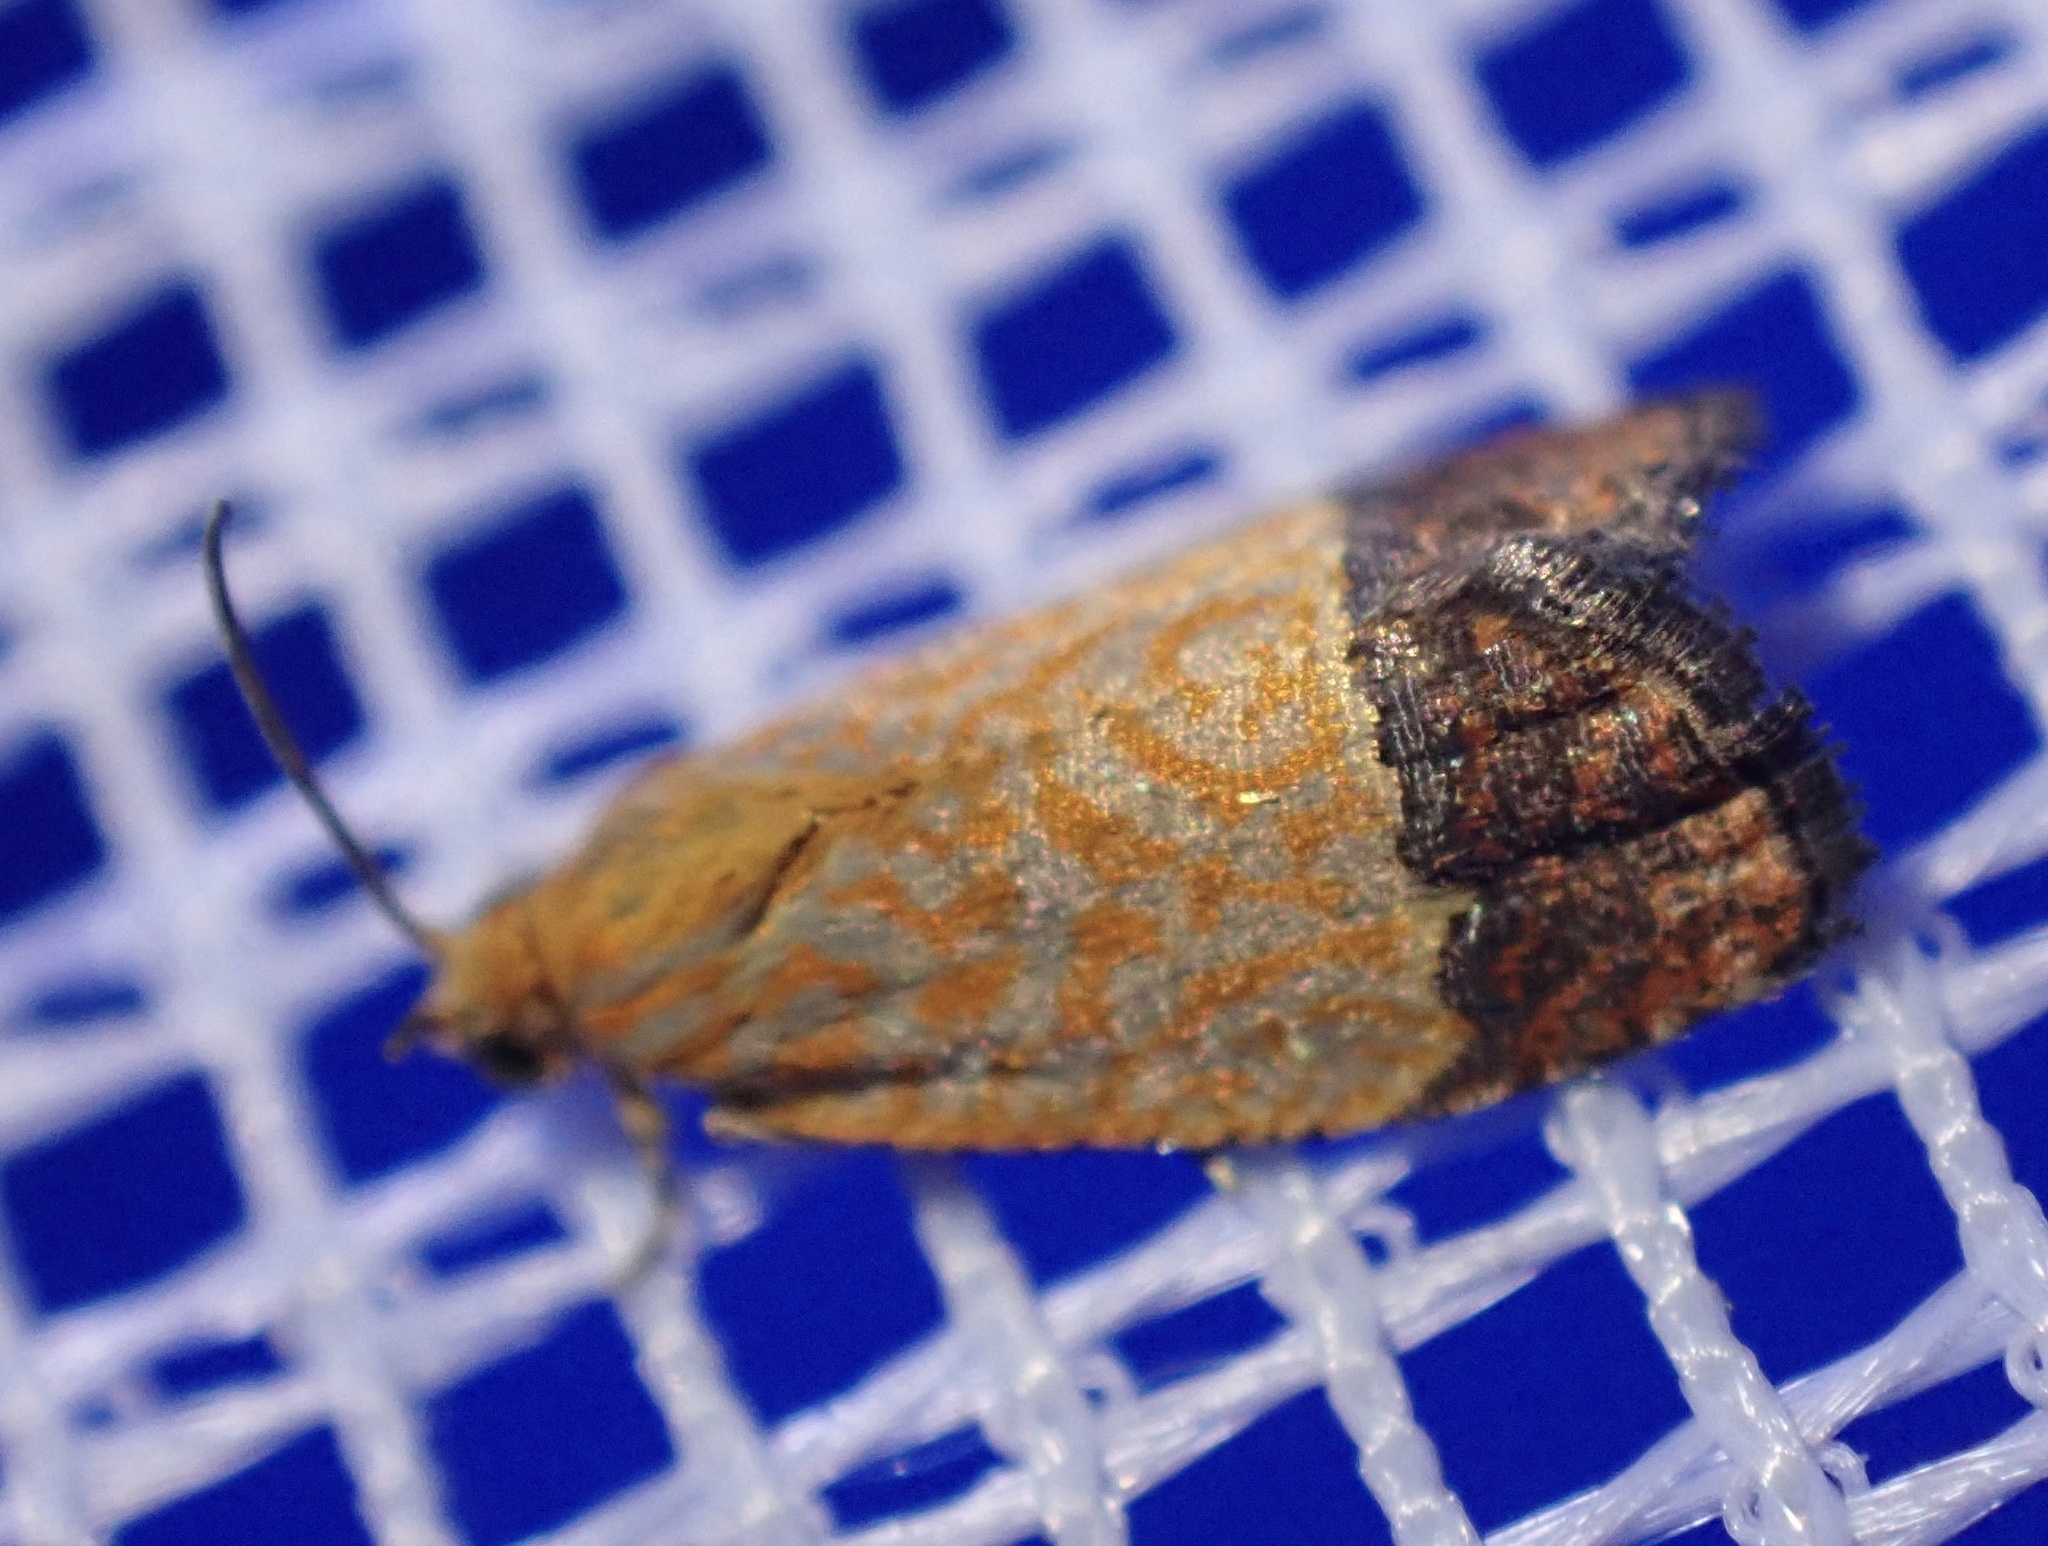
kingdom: Animalia
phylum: Arthropoda
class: Insecta
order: Lepidoptera
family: Tortricidae
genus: Loboschiza
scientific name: Loboschiza koenigiana
